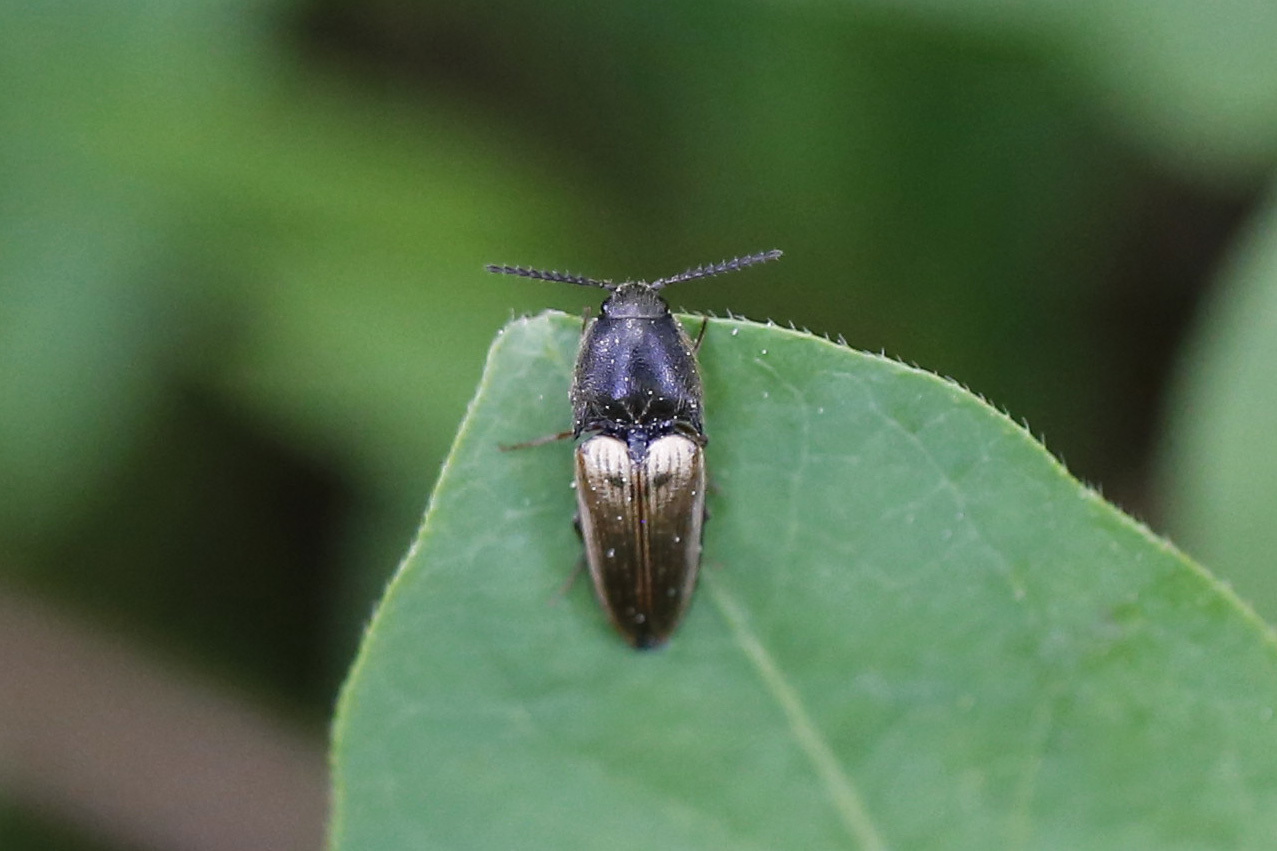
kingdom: Animalia
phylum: Arthropoda
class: Insecta
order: Coleoptera
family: Elateridae
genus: Ampedus
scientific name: Ampedus nigricollis
